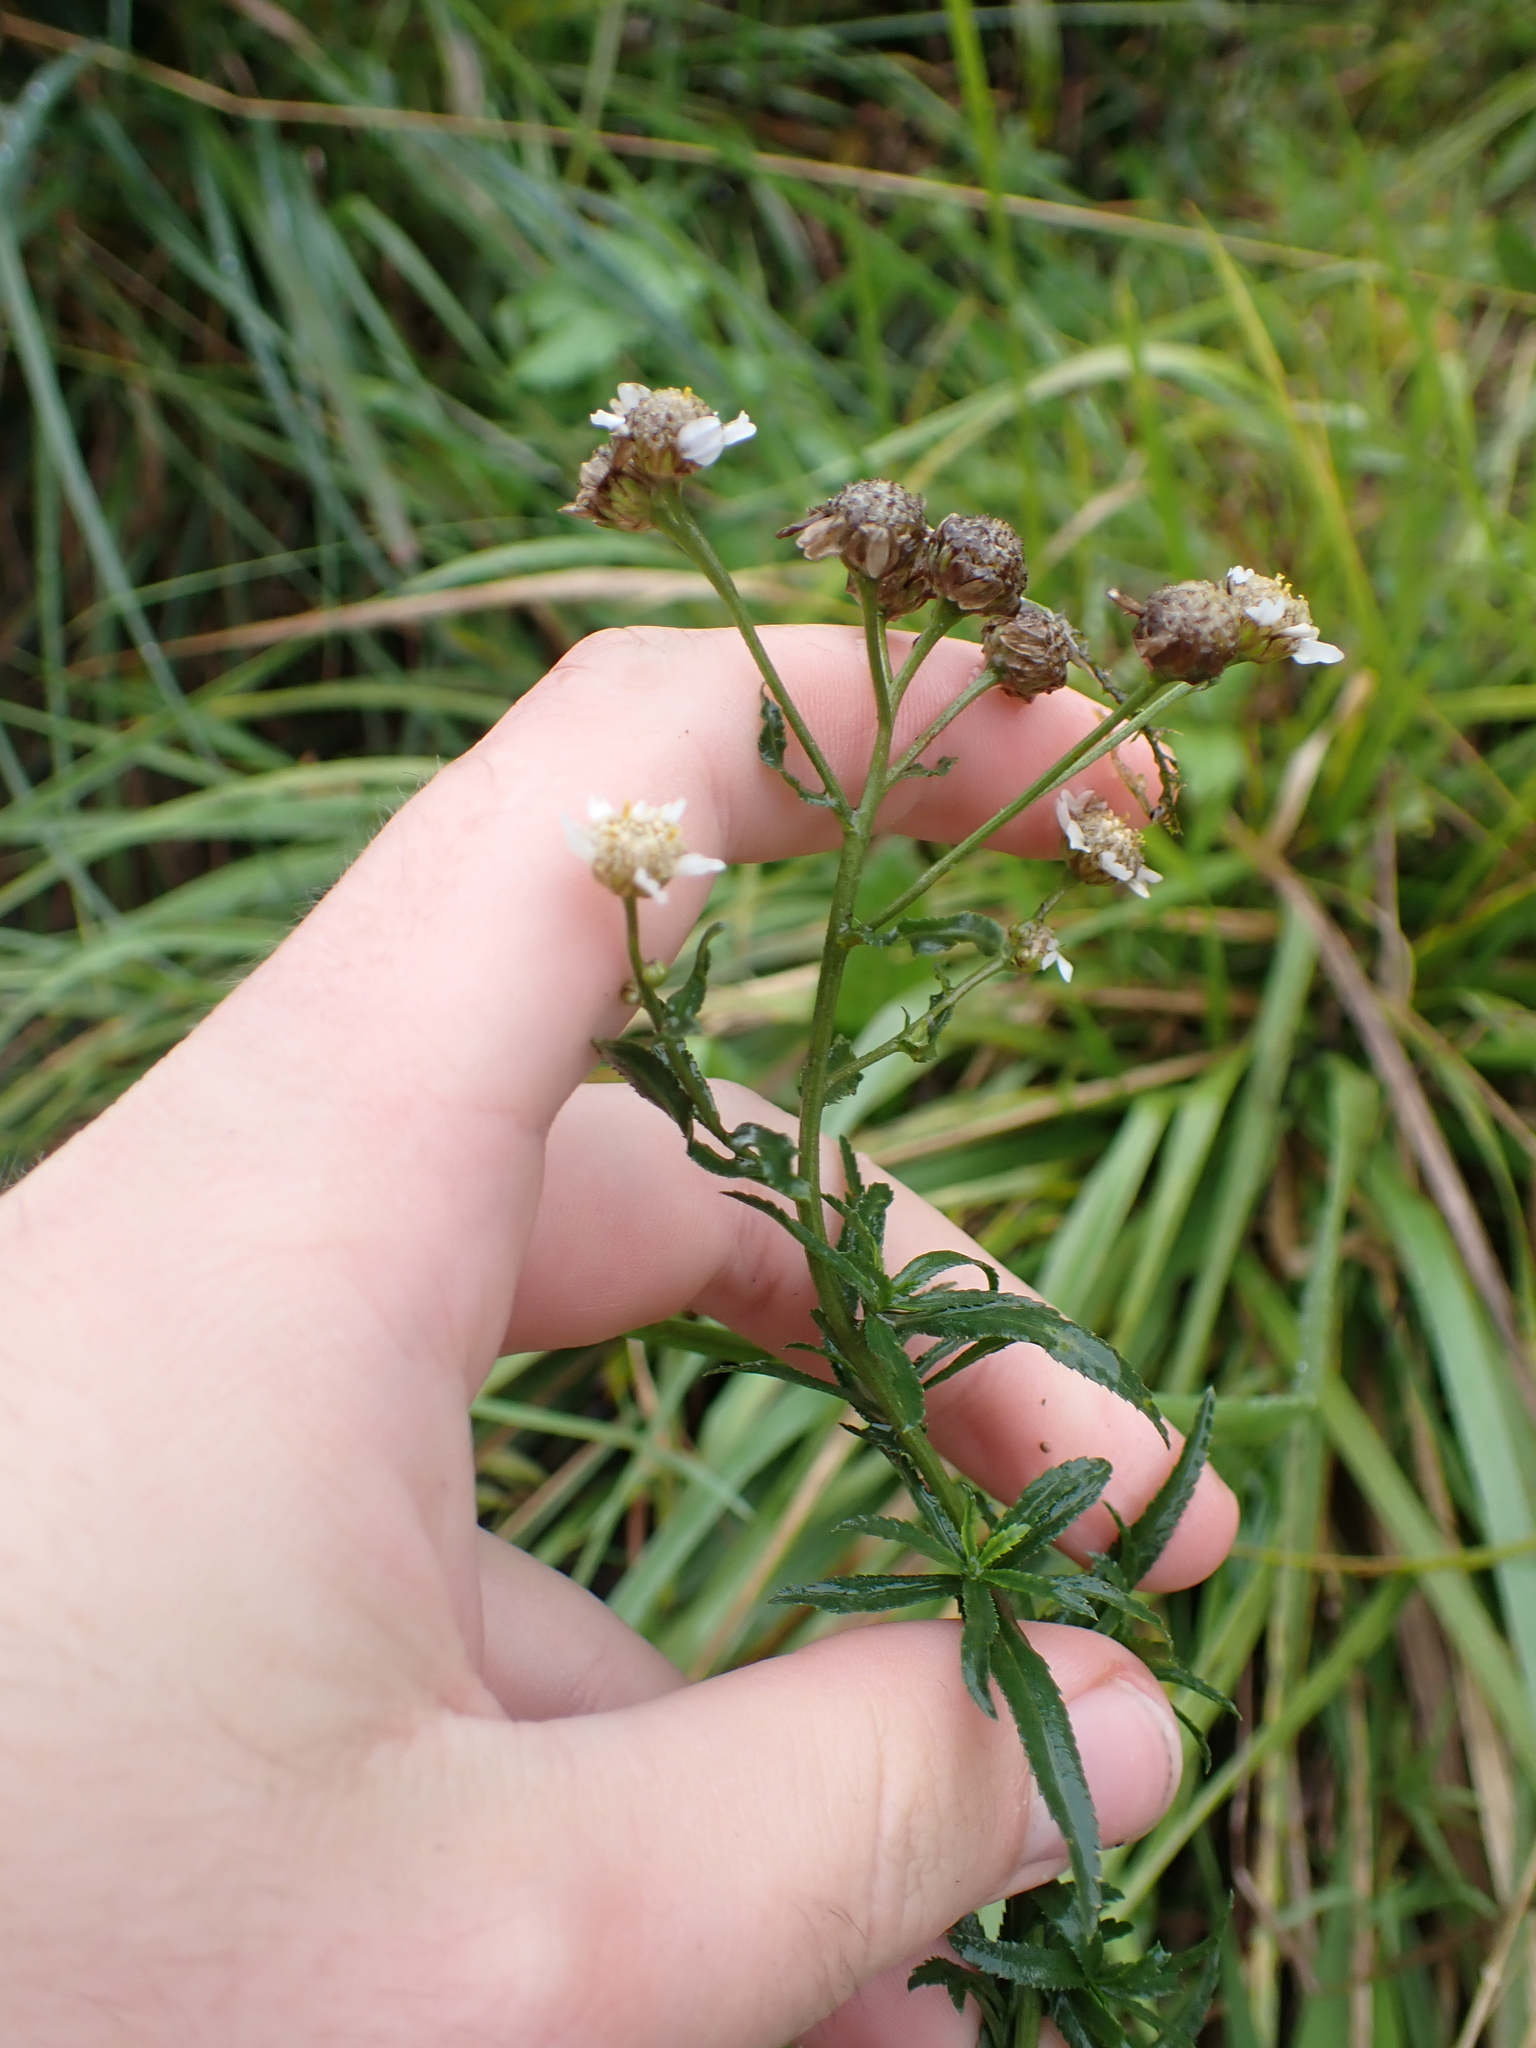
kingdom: Plantae
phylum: Tracheophyta
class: Magnoliopsida
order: Asterales
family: Asteraceae
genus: Achillea
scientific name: Achillea ptarmica
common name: Sneezeweed
